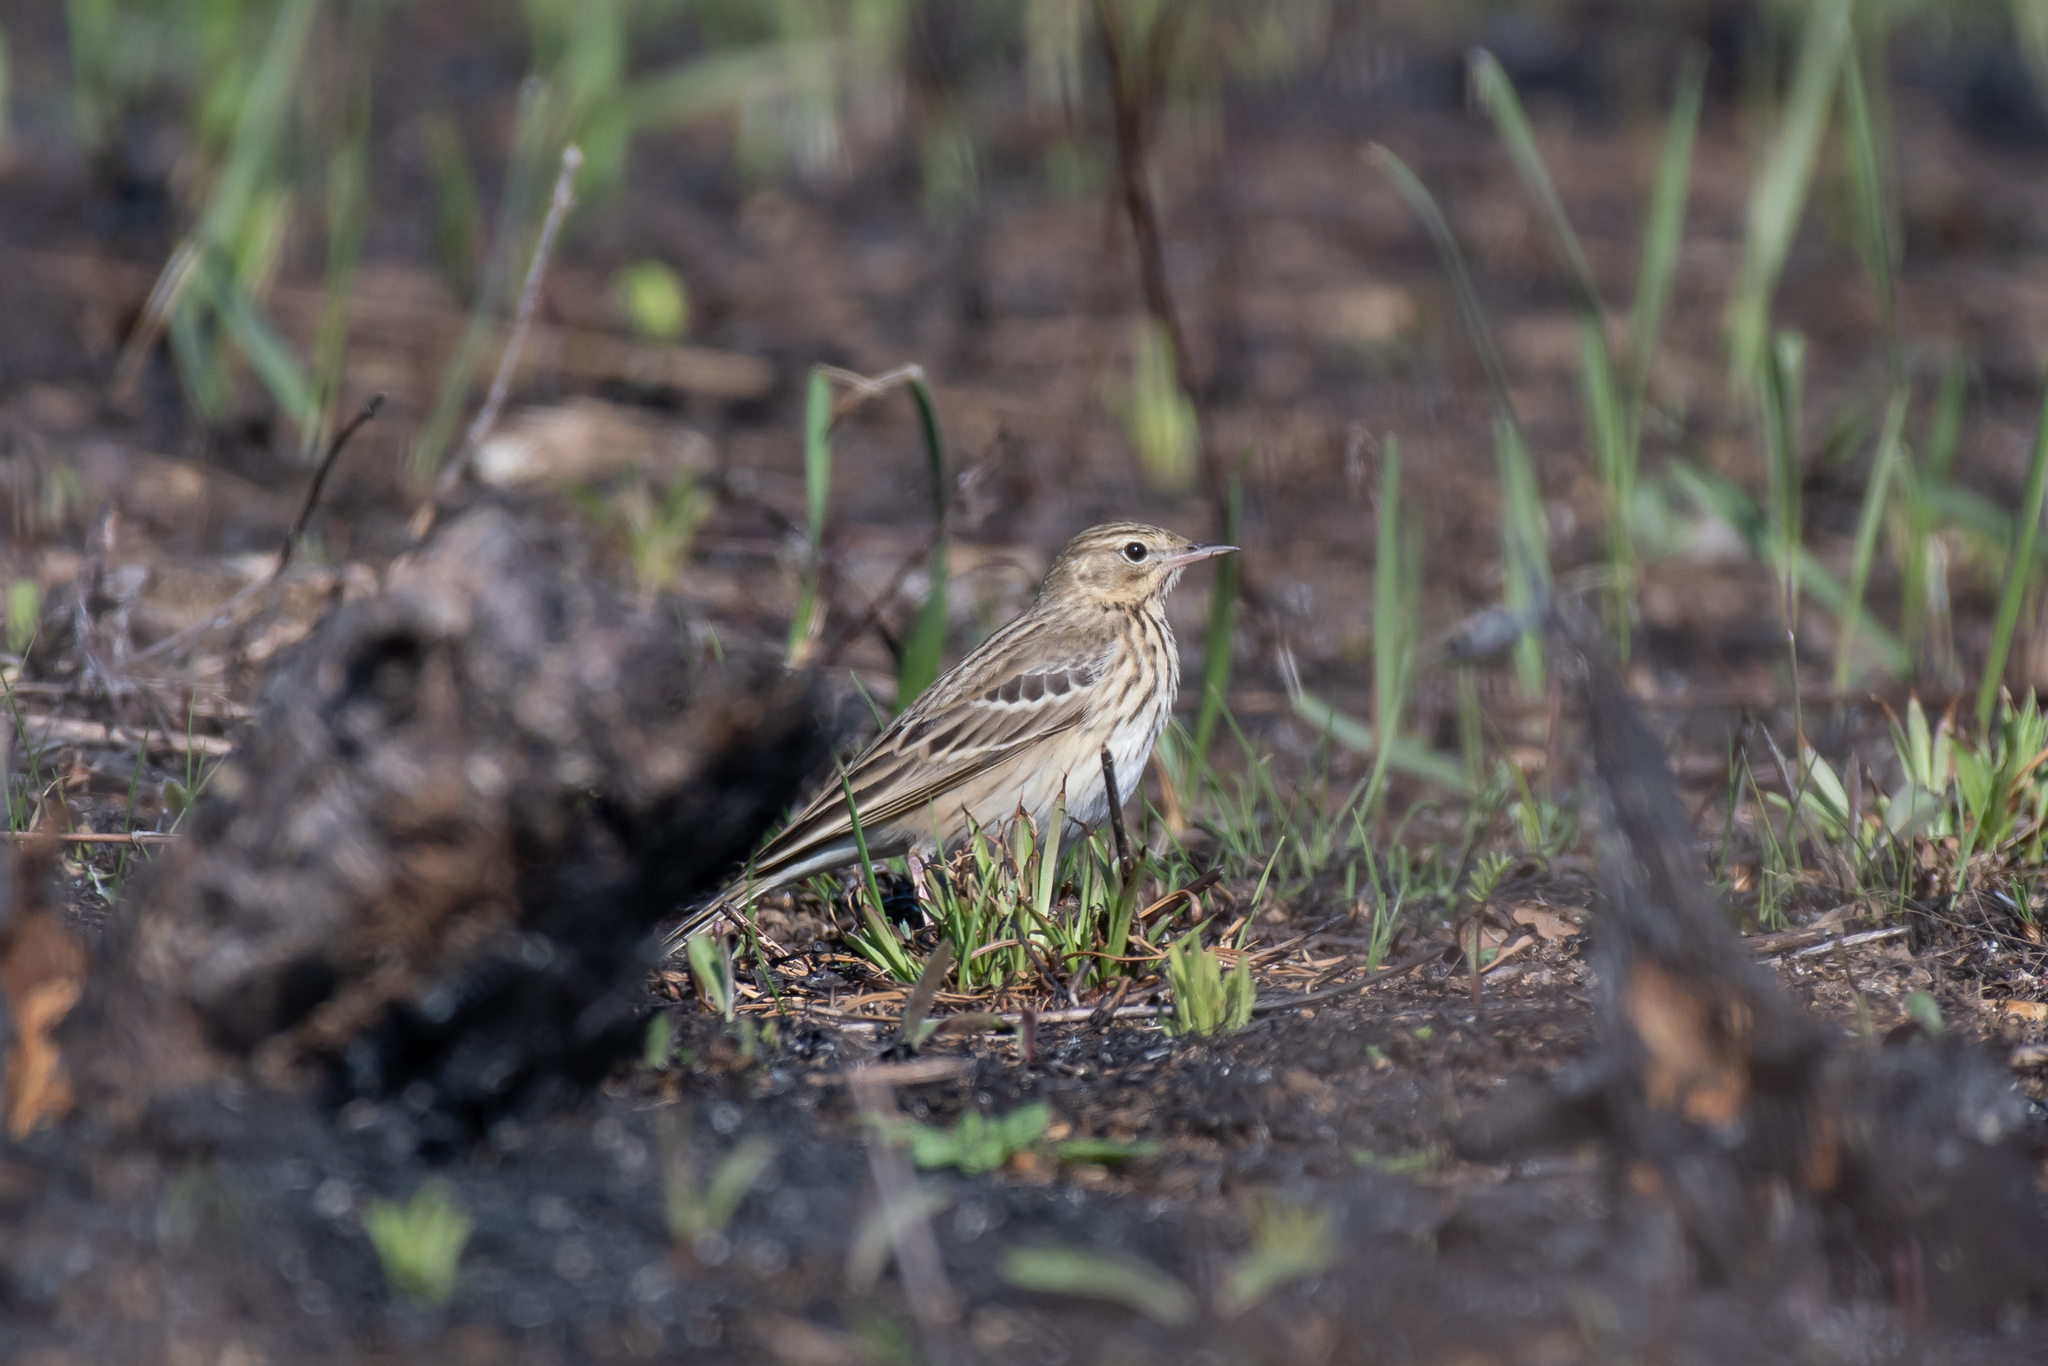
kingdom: Animalia
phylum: Chordata
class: Aves
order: Passeriformes
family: Motacillidae
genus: Anthus
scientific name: Anthus trivialis
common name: Tree pipit
